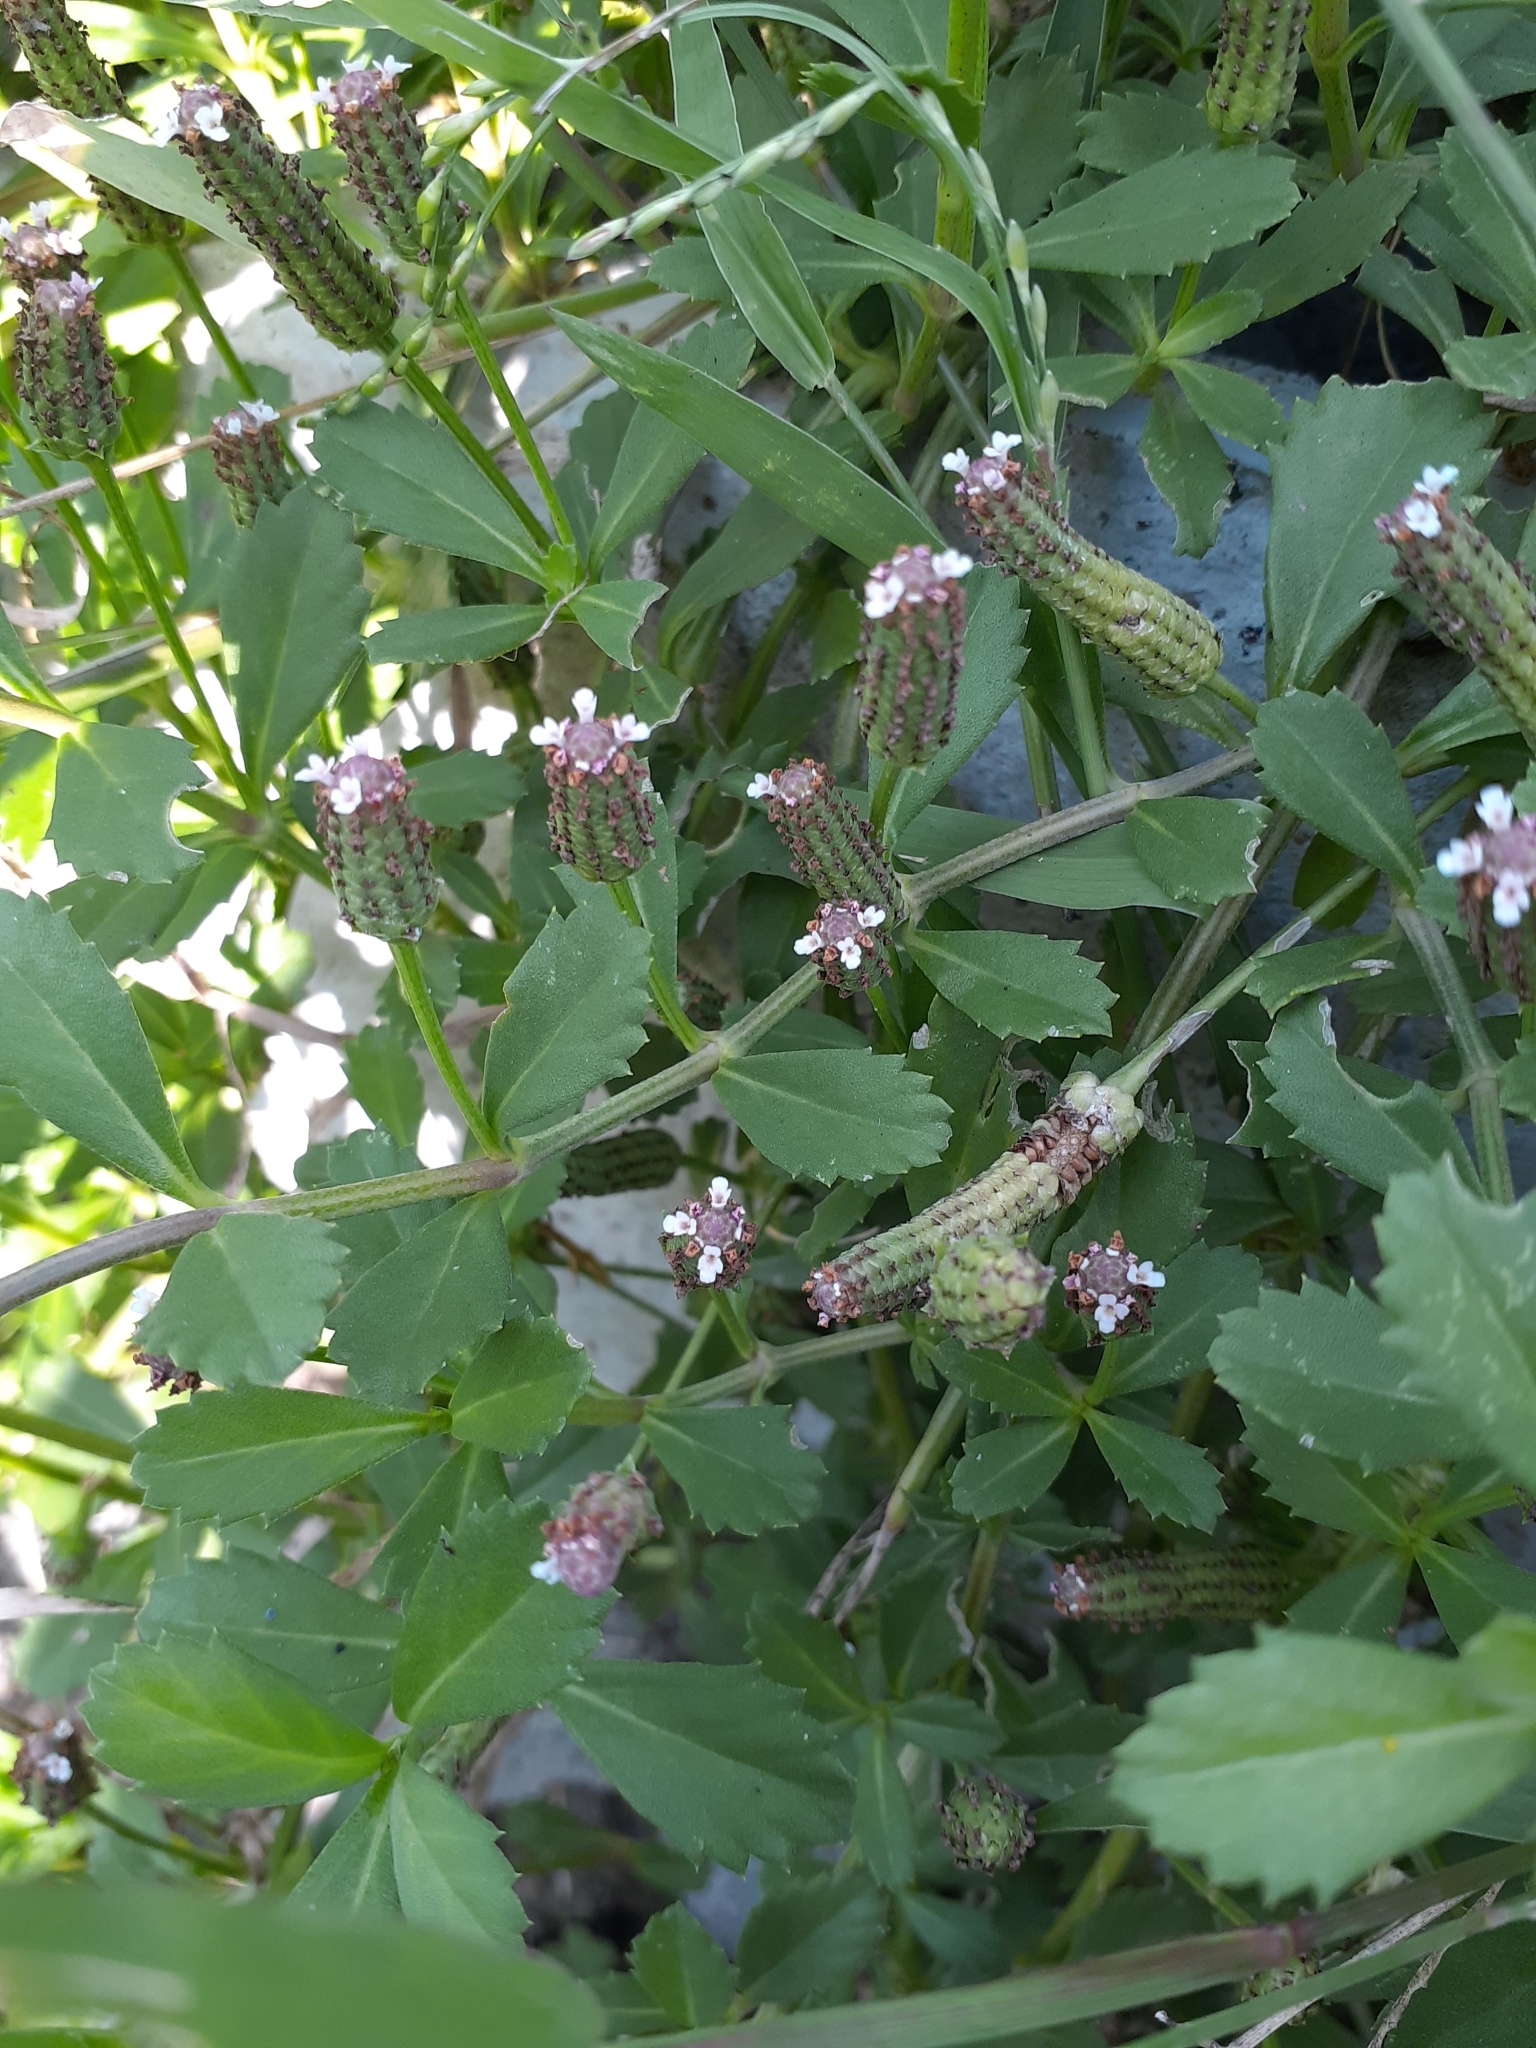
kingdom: Plantae
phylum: Tracheophyta
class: Magnoliopsida
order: Lamiales
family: Verbenaceae
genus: Phyla
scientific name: Phyla nodiflora
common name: Frogfruit
